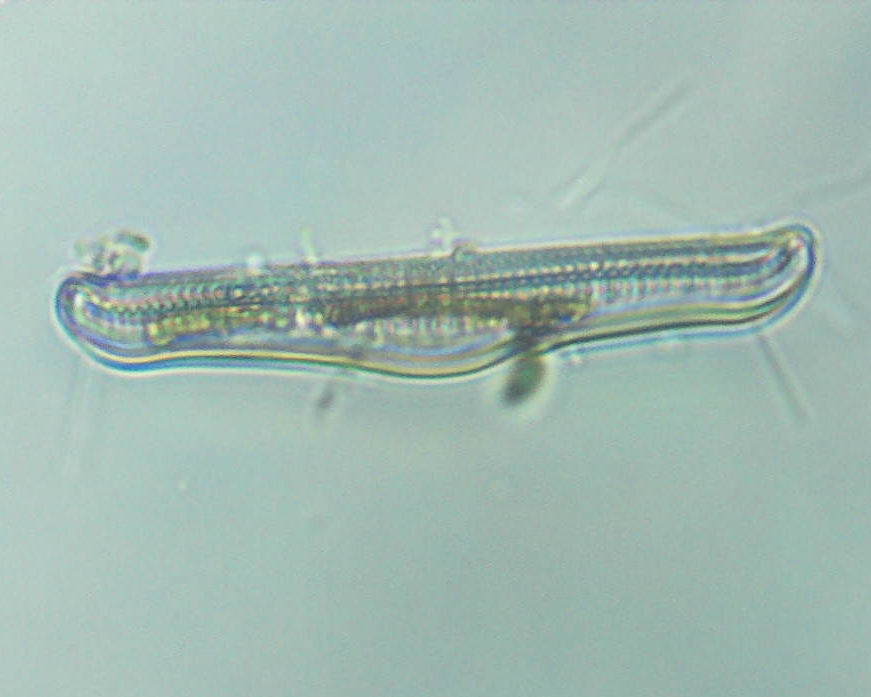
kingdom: Chromista
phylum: Ochrophyta
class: Bacillariophyceae
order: Rhopalodiales
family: Rhopalodiaceae
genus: Epithemia
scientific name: Epithemia gibba
